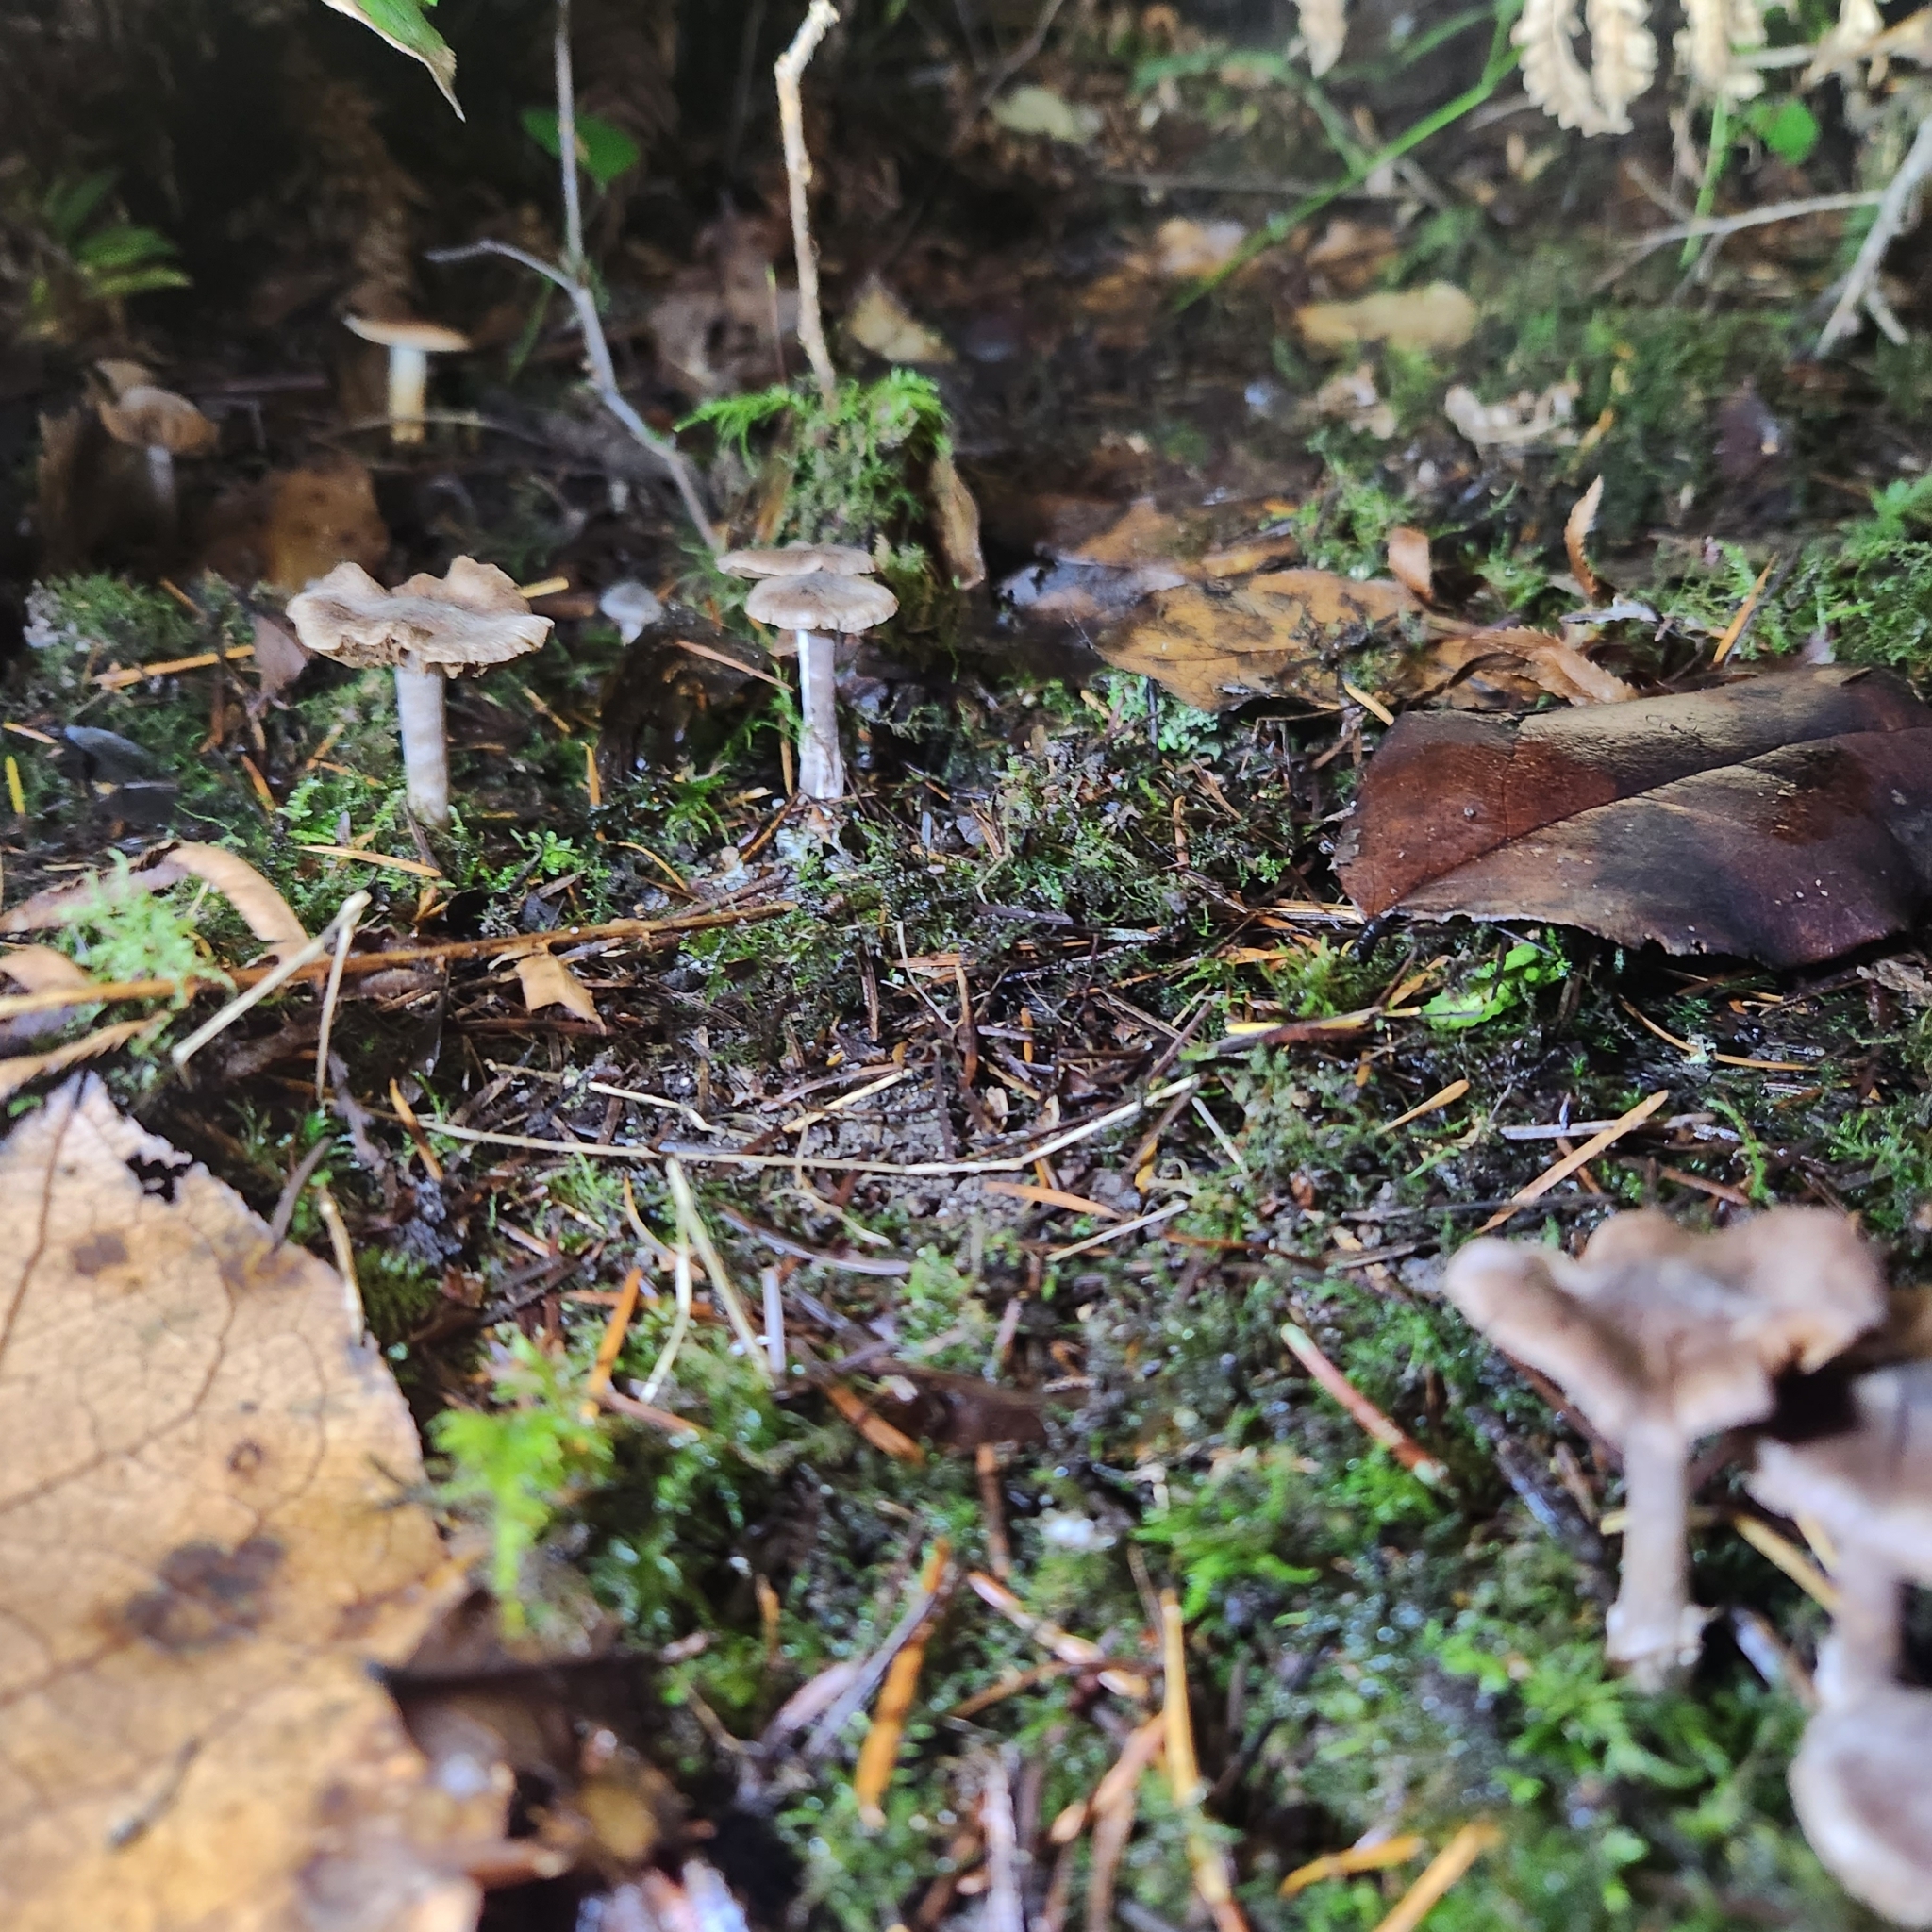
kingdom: Fungi
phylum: Basidiomycota
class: Agaricomycetes
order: Agaricales
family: Tricholomataceae
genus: Tricholoma
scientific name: Tricholoma terreum
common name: Grey knight
